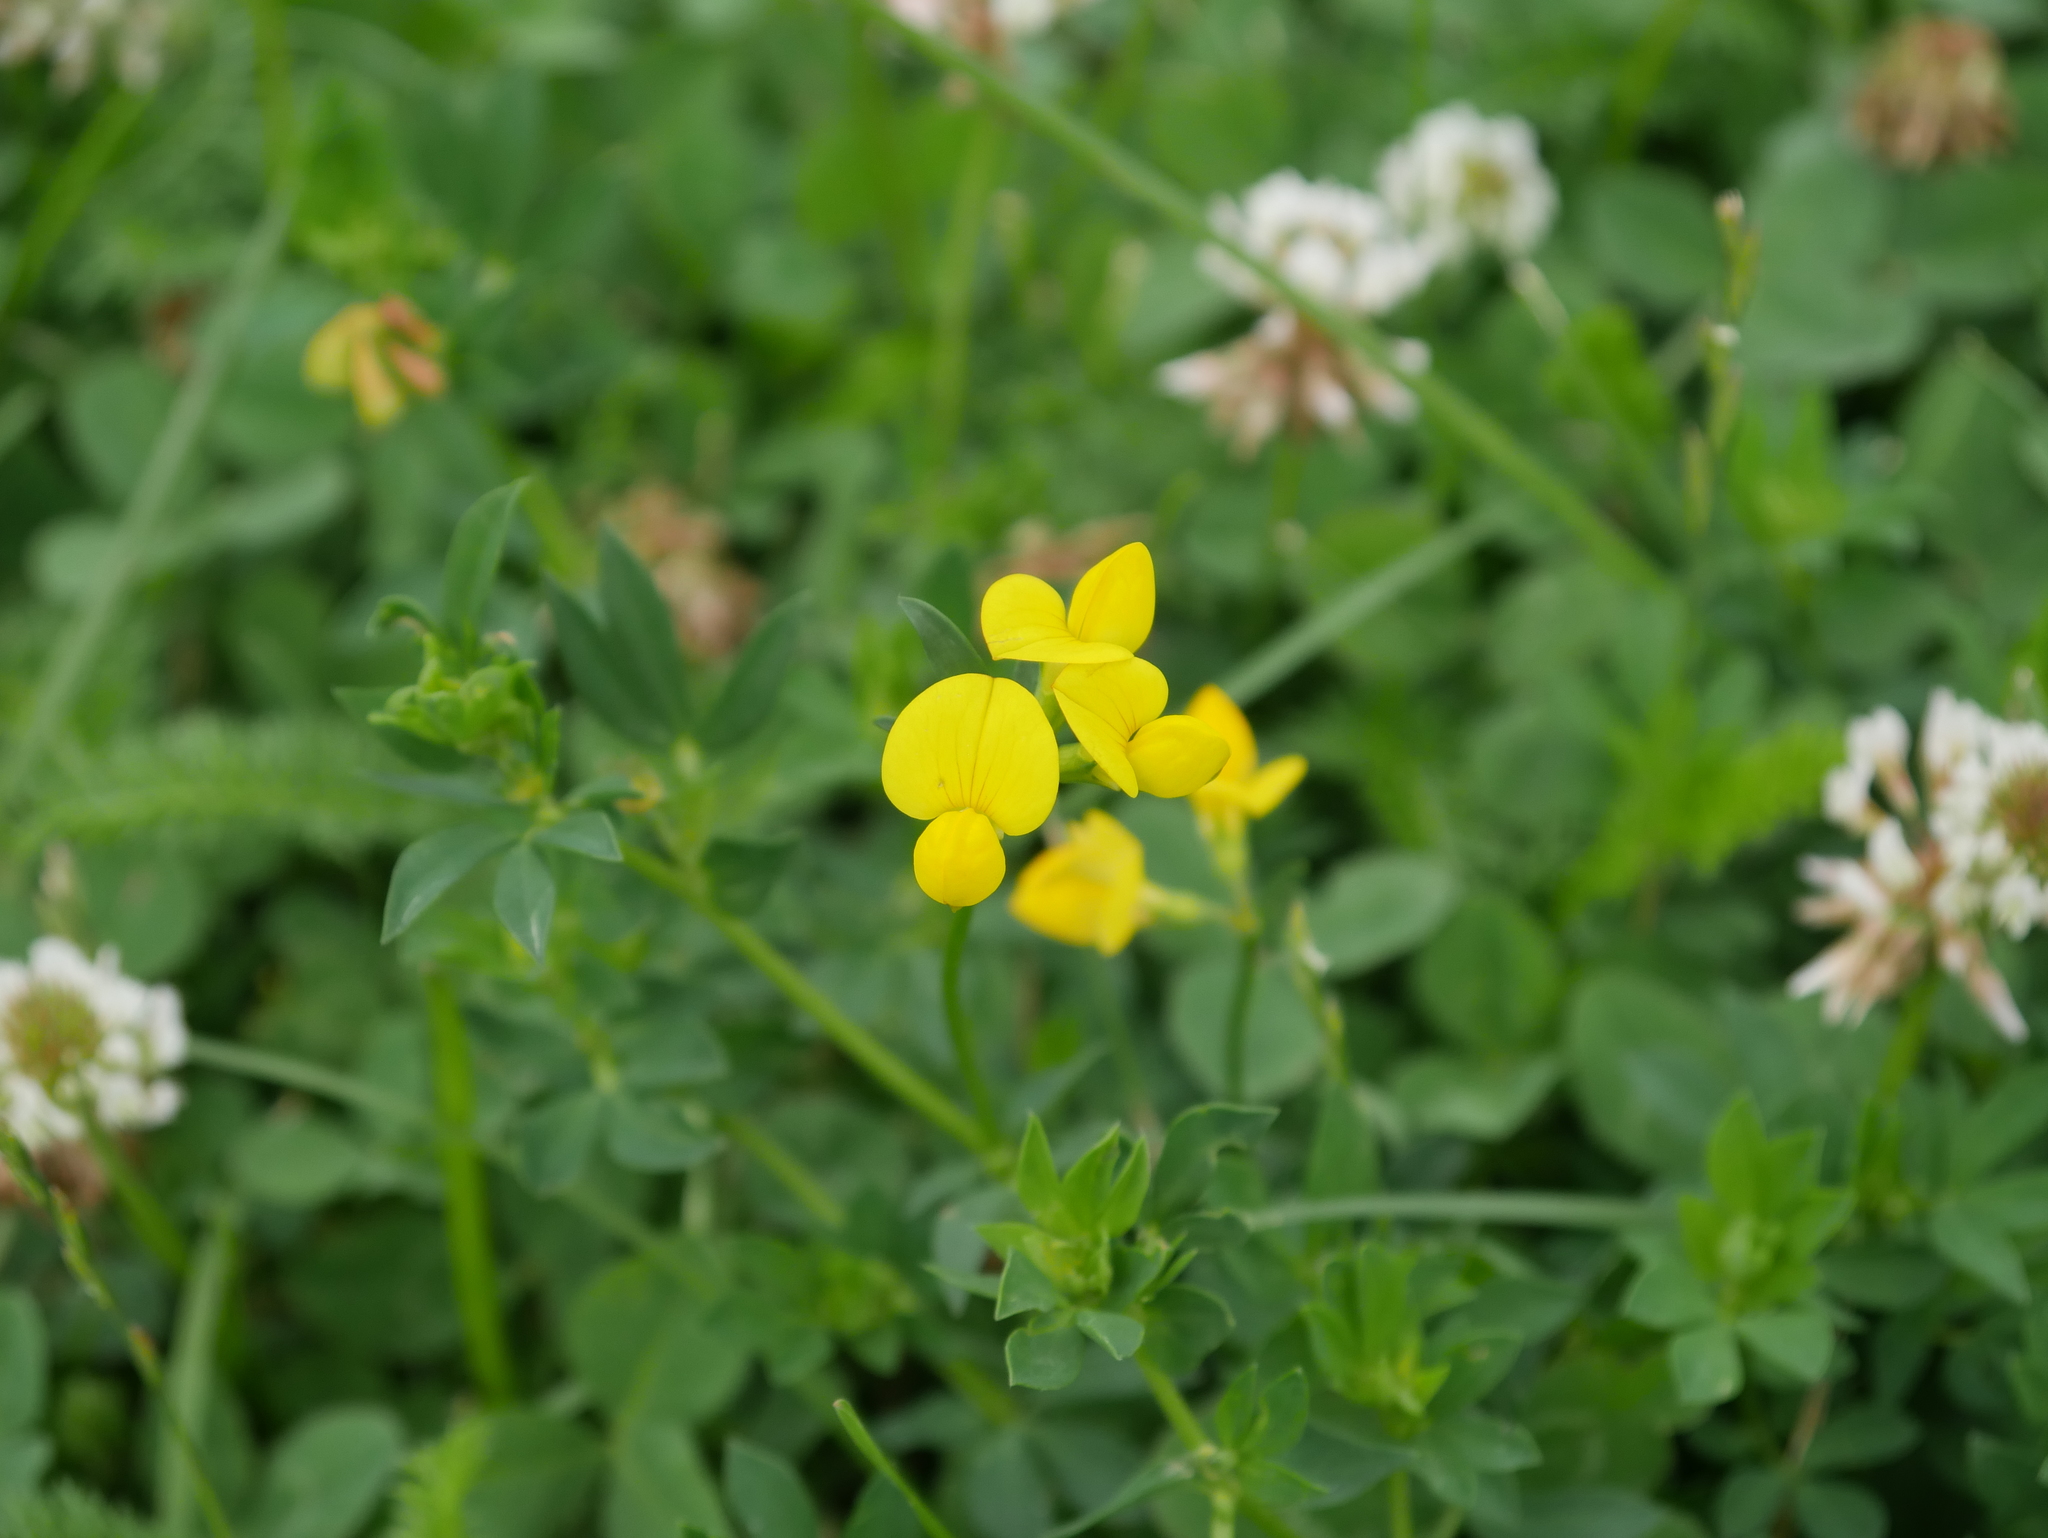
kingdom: Plantae
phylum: Tracheophyta
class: Magnoliopsida
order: Fabales
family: Fabaceae
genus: Lotus
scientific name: Lotus corniculatus
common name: Common bird's-foot-trefoil
